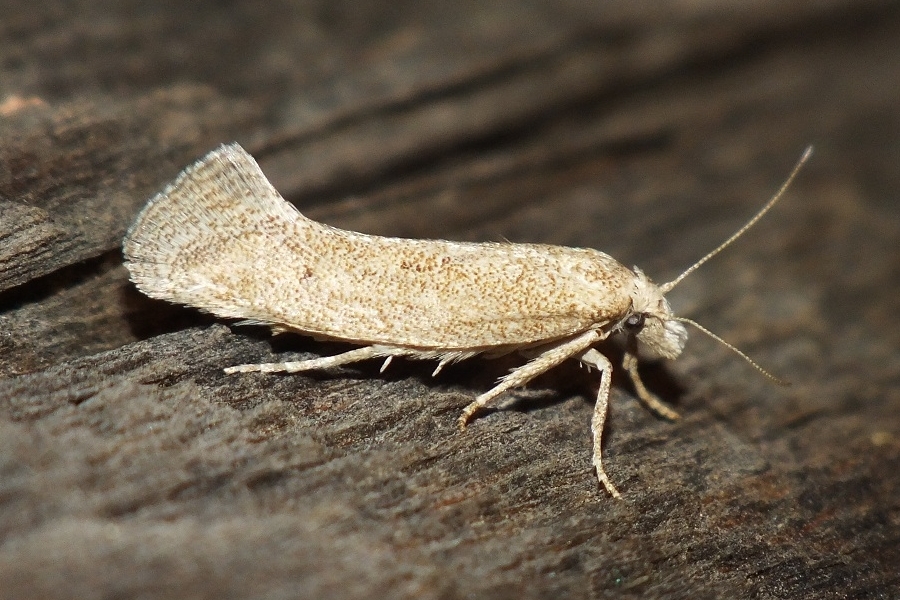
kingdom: Animalia
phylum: Arthropoda
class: Insecta
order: Lepidoptera
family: Gelechiidae
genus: Metanarsia
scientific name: Metanarsia modesta
